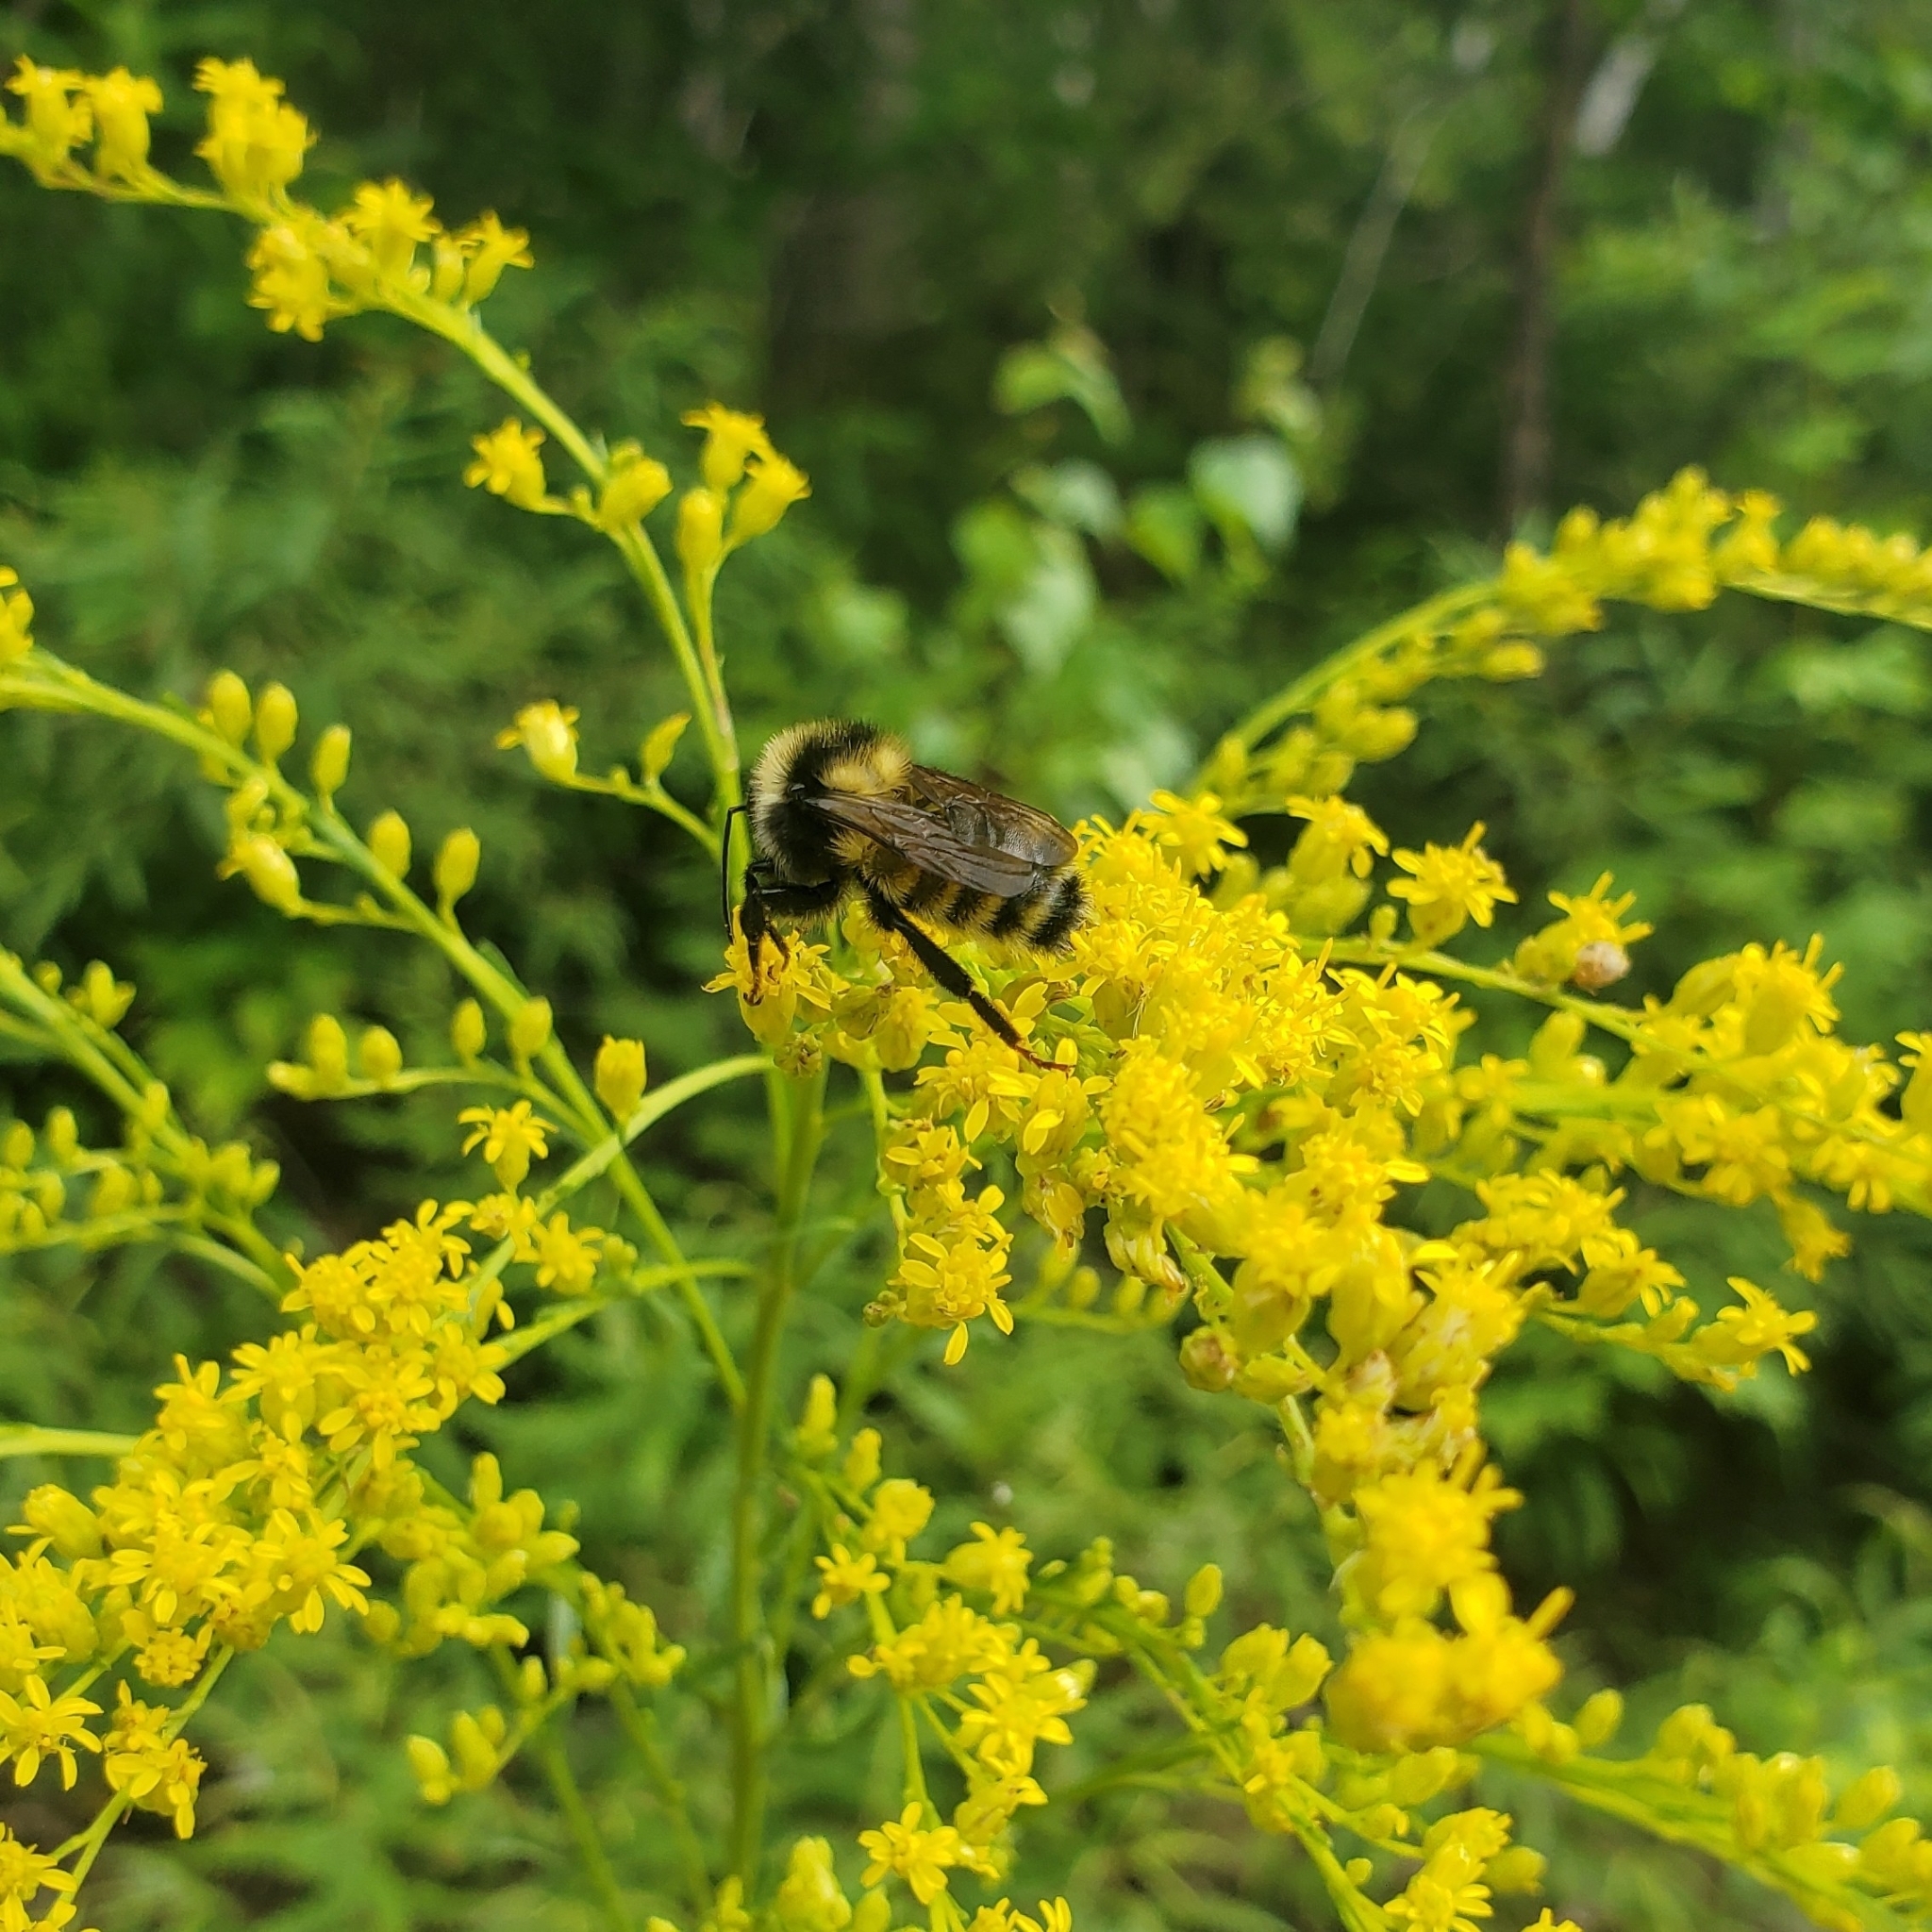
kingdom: Animalia
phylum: Arthropoda
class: Insecta
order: Hymenoptera
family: Apidae
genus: Bombus
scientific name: Bombus borealis
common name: Northern amber bumble bee
